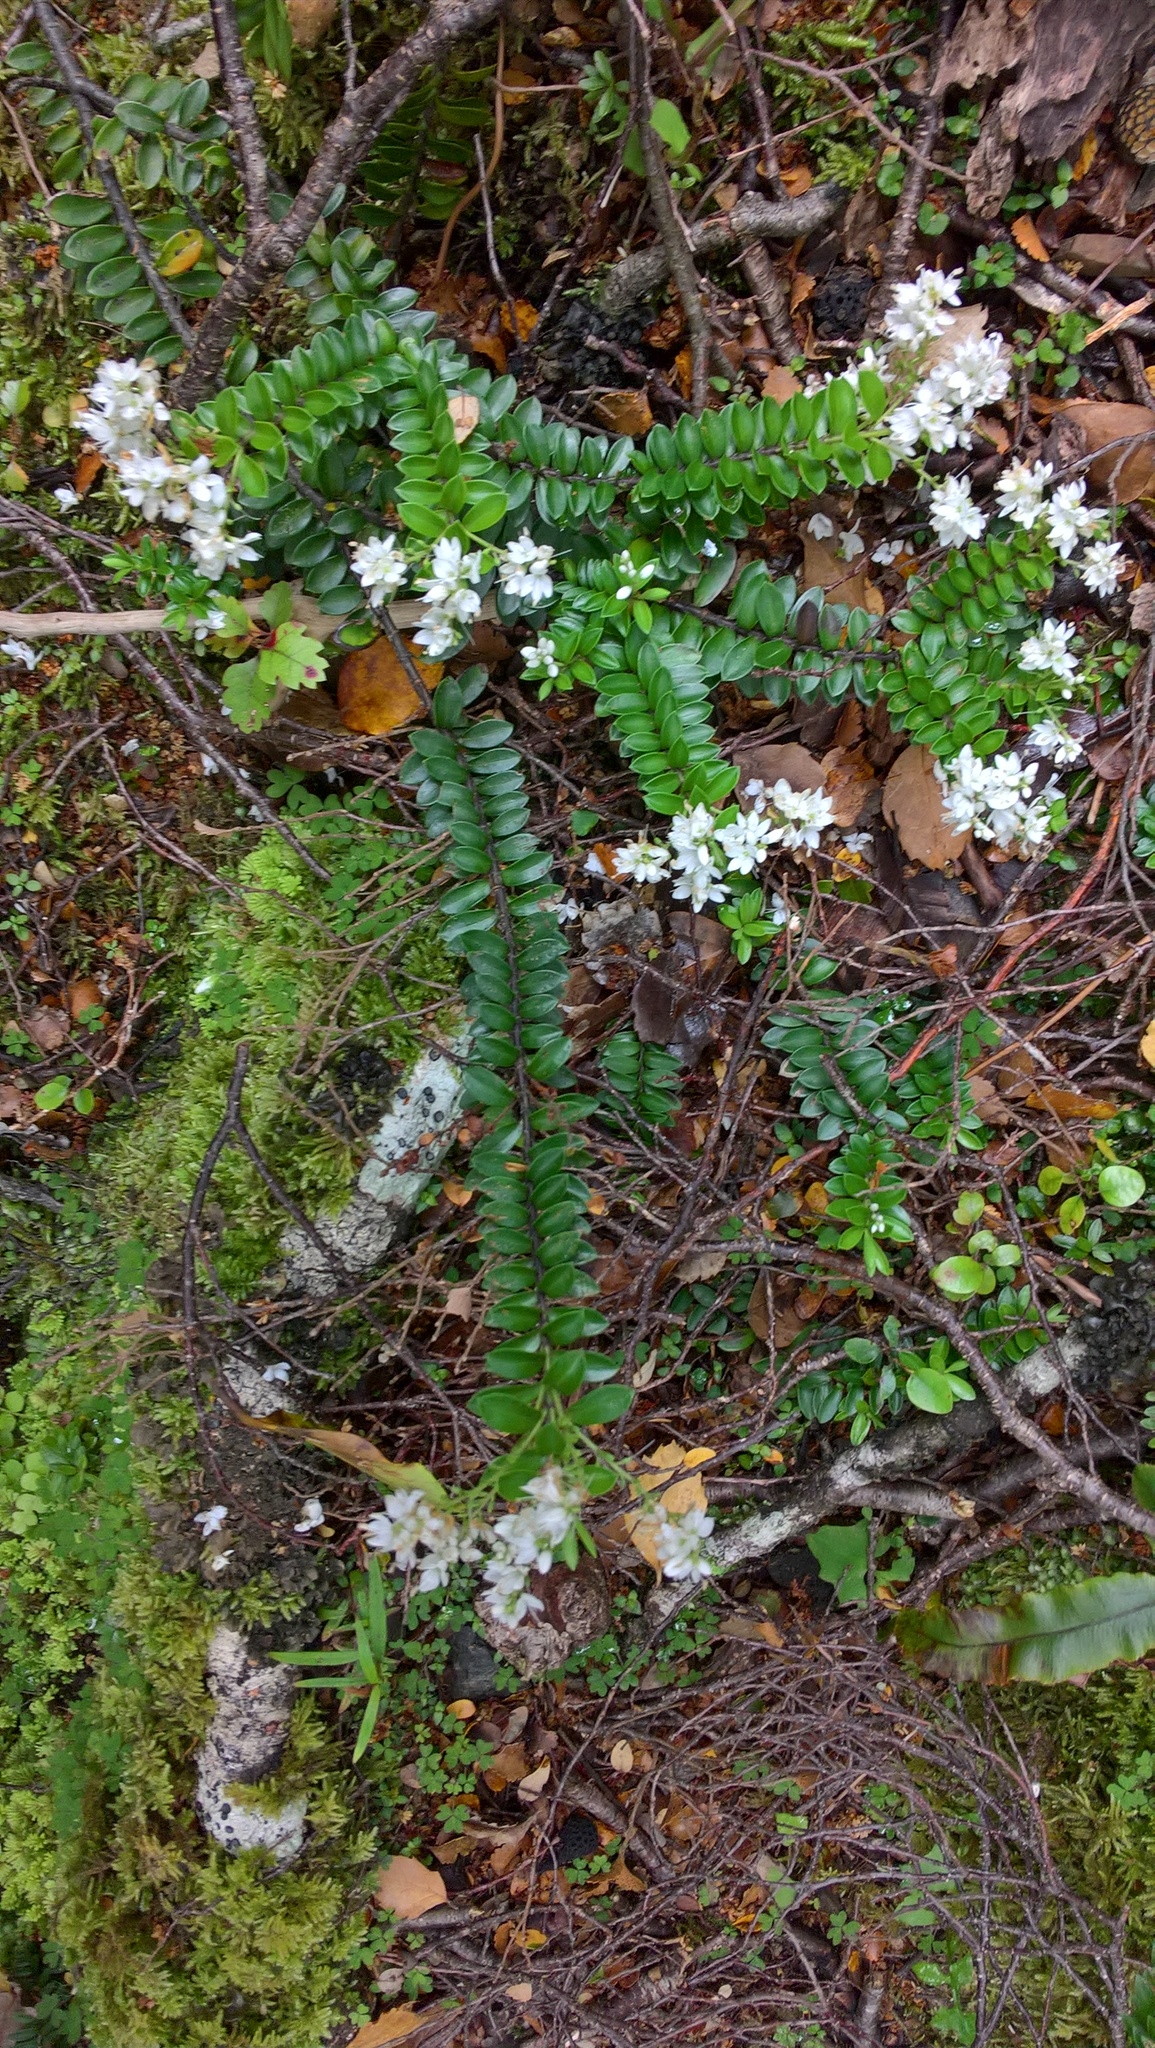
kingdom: Plantae
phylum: Tracheophyta
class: Magnoliopsida
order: Lamiales
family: Plantaginaceae
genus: Veronica
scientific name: Veronica vernicosa
